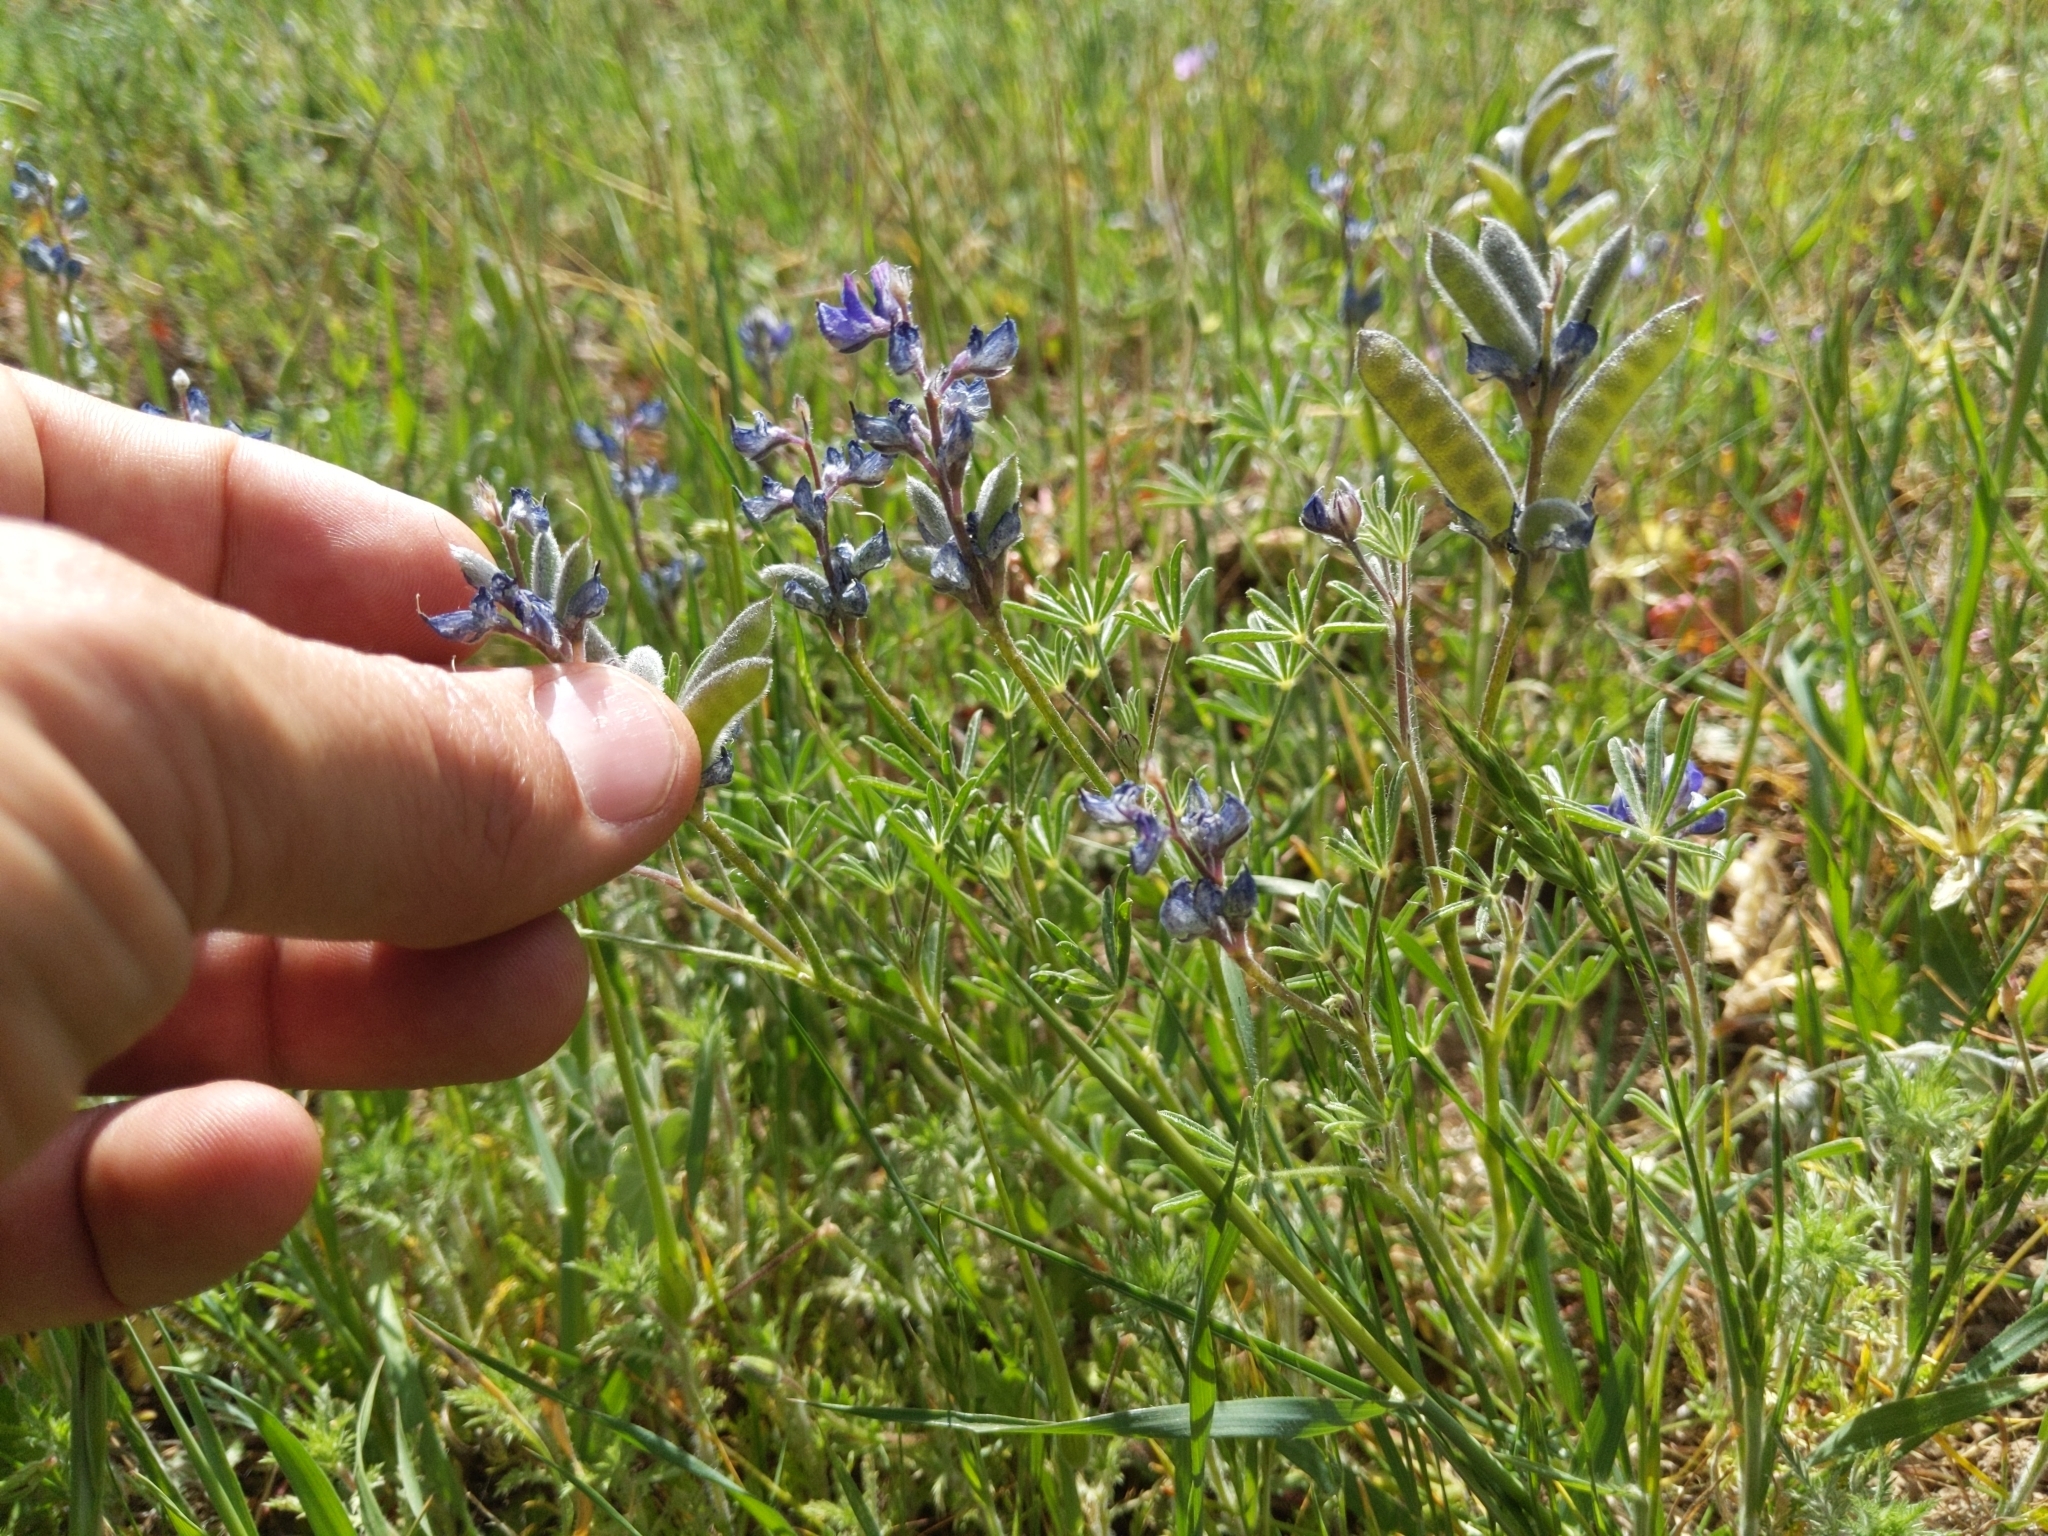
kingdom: Plantae
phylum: Tracheophyta
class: Magnoliopsida
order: Fabales
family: Fabaceae
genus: Lupinus
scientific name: Lupinus bicolor
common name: Miniature lupine
